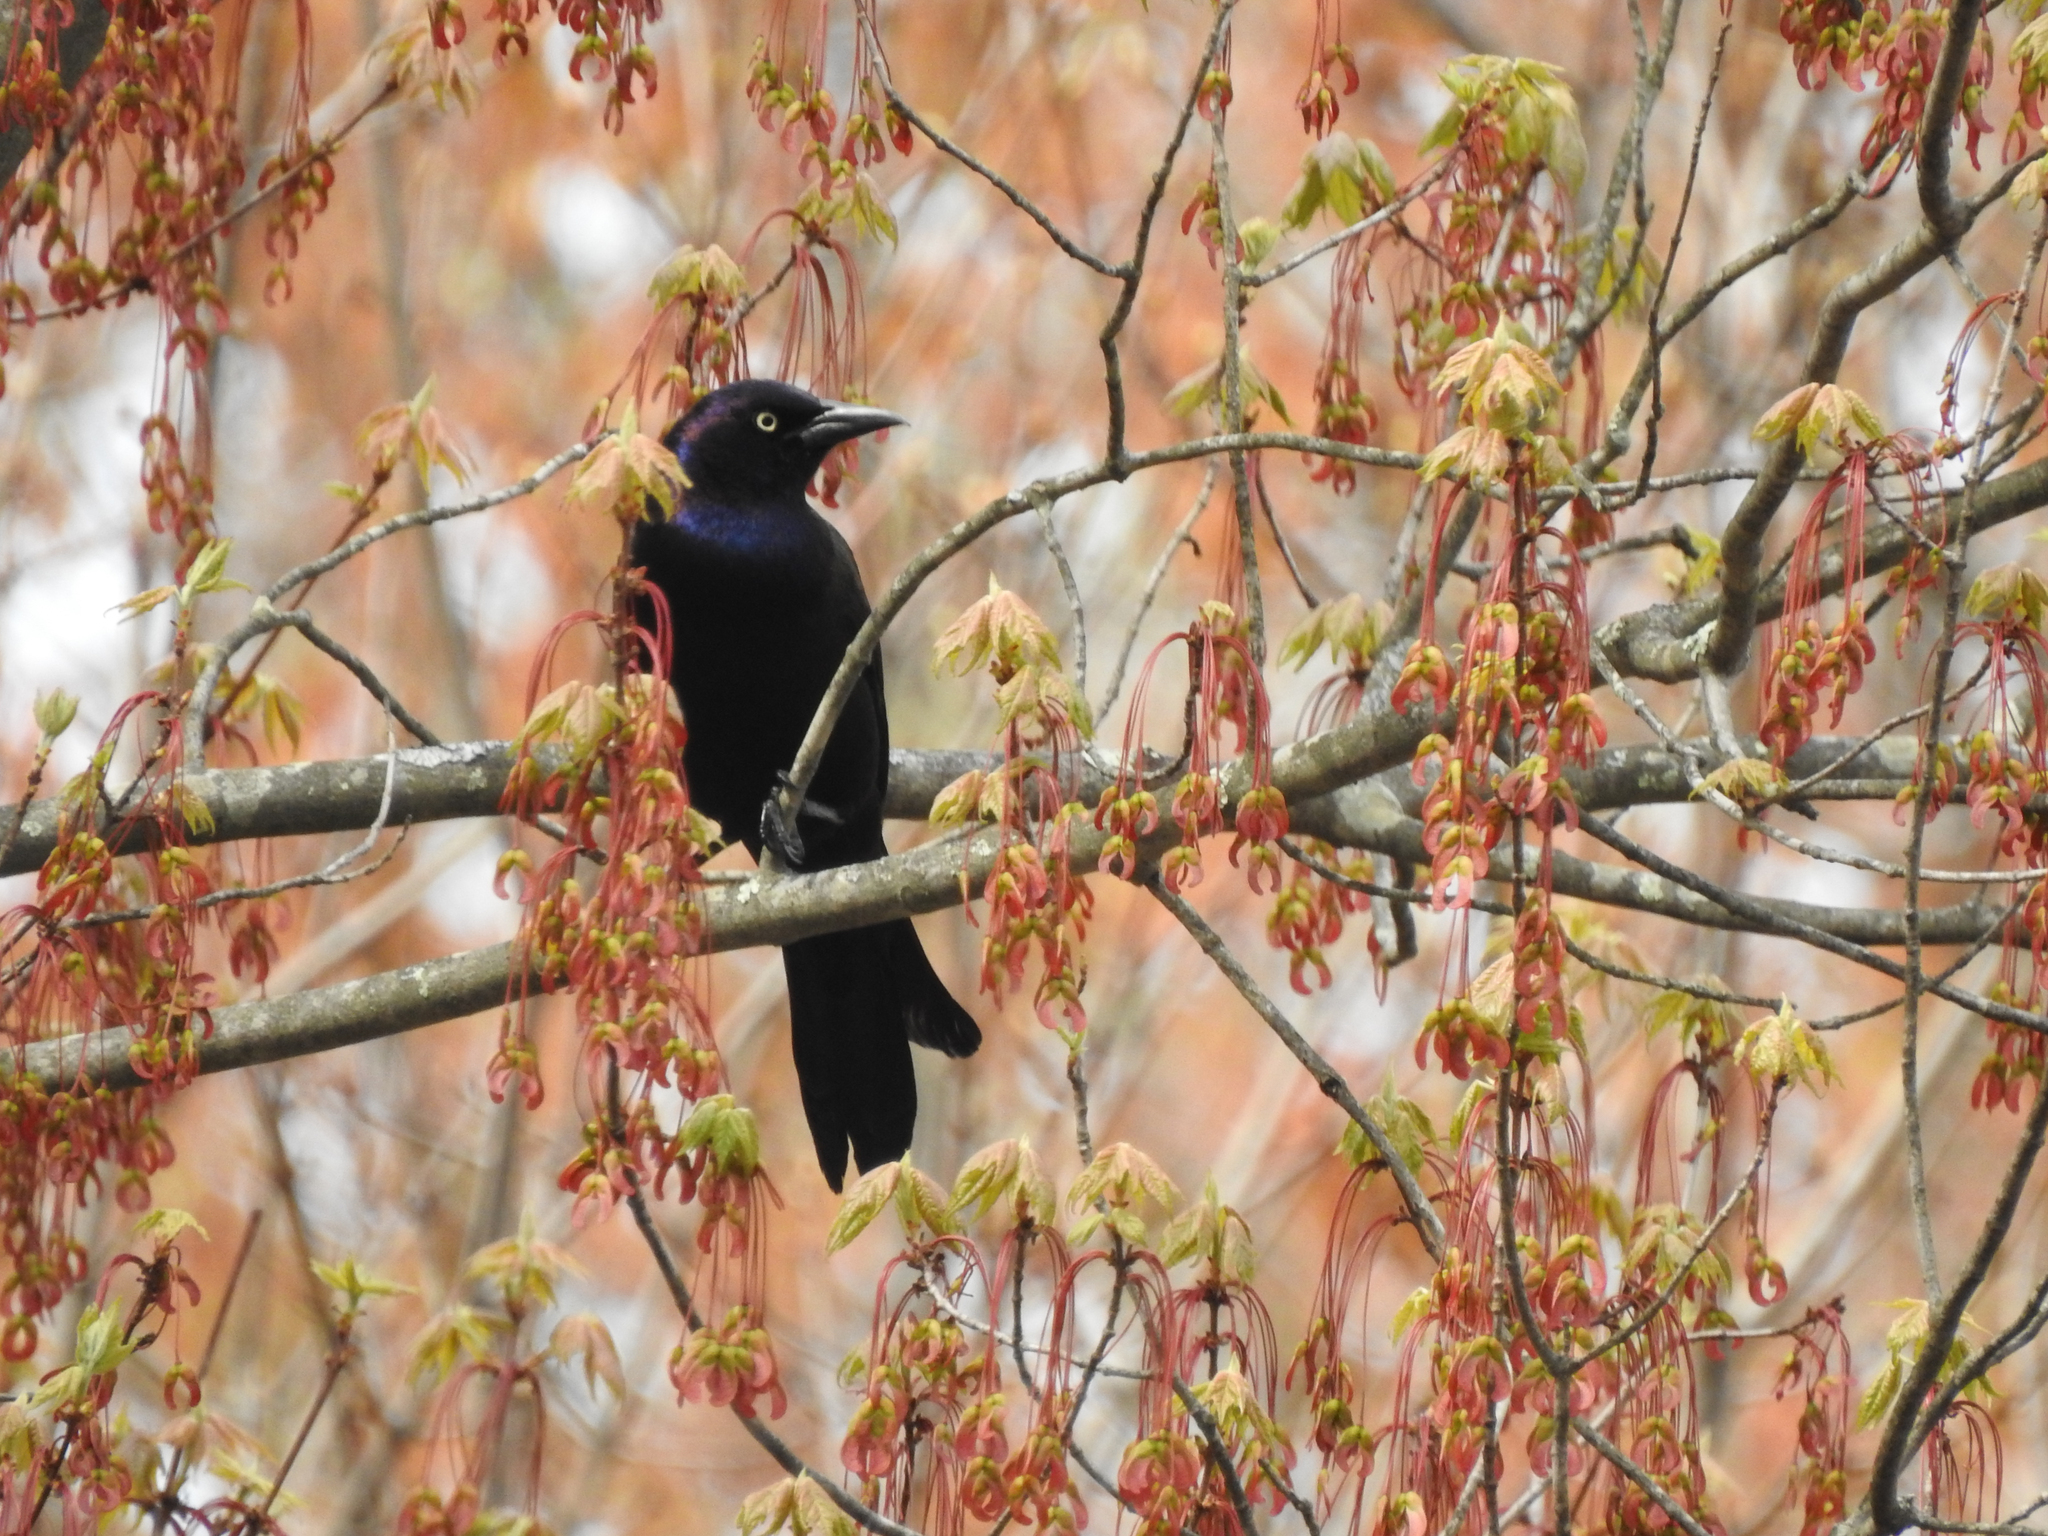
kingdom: Animalia
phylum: Chordata
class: Aves
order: Passeriformes
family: Icteridae
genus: Quiscalus
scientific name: Quiscalus quiscula
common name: Common grackle
